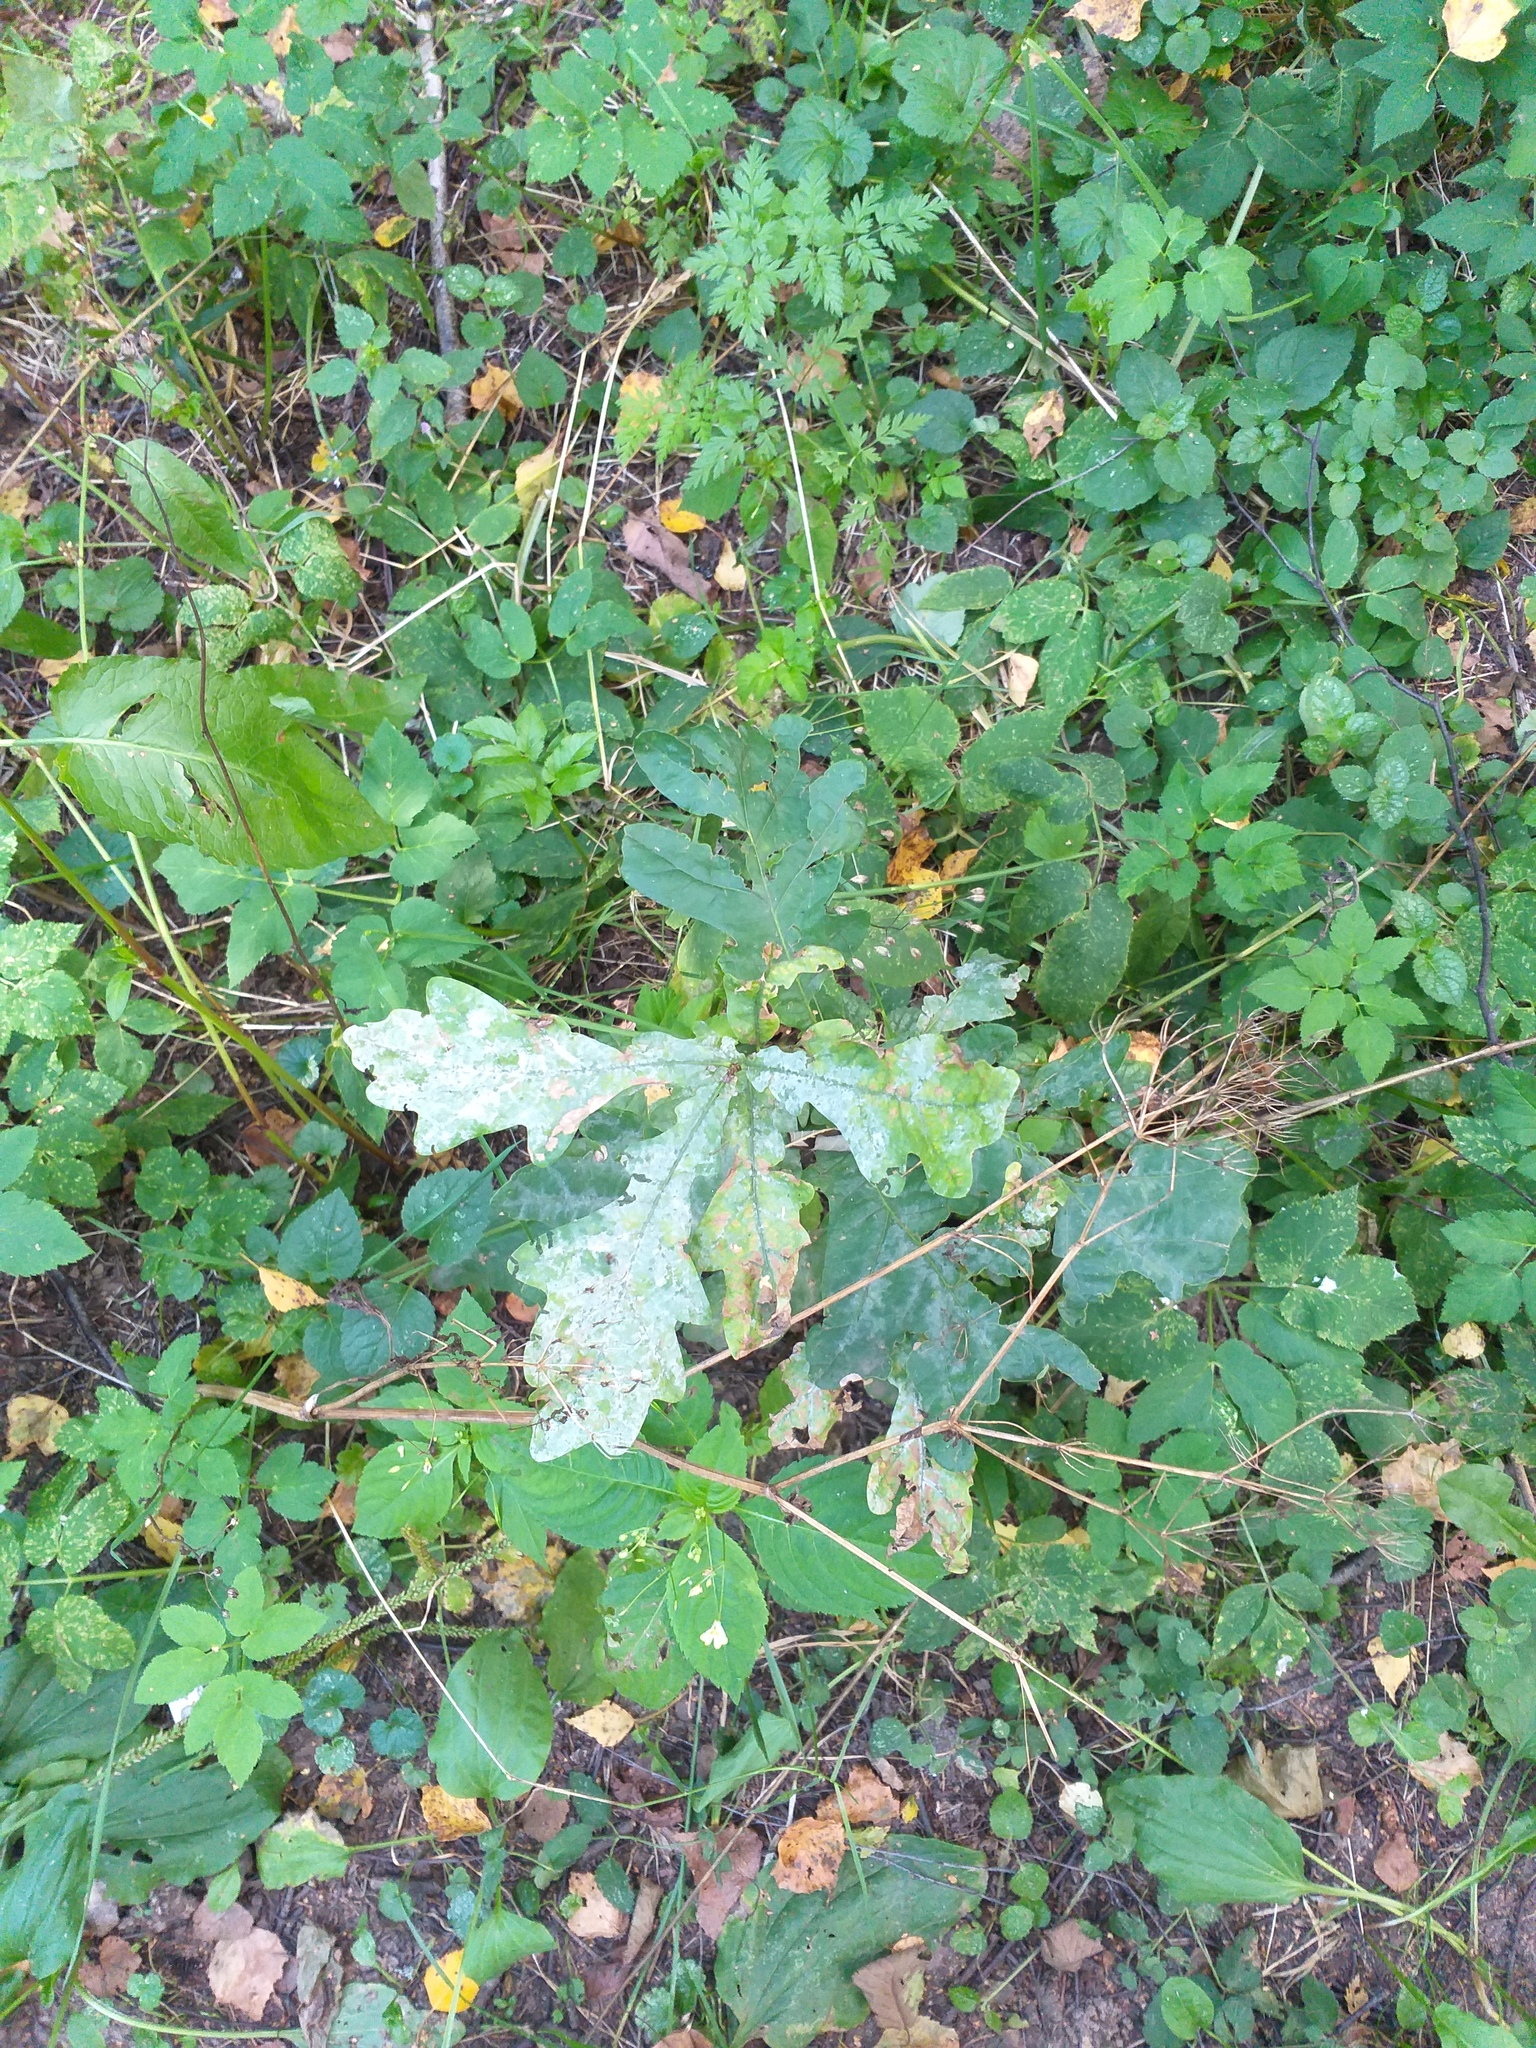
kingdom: Plantae
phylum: Tracheophyta
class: Magnoliopsida
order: Fagales
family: Fagaceae
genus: Quercus
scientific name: Quercus robur
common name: Pedunculate oak
